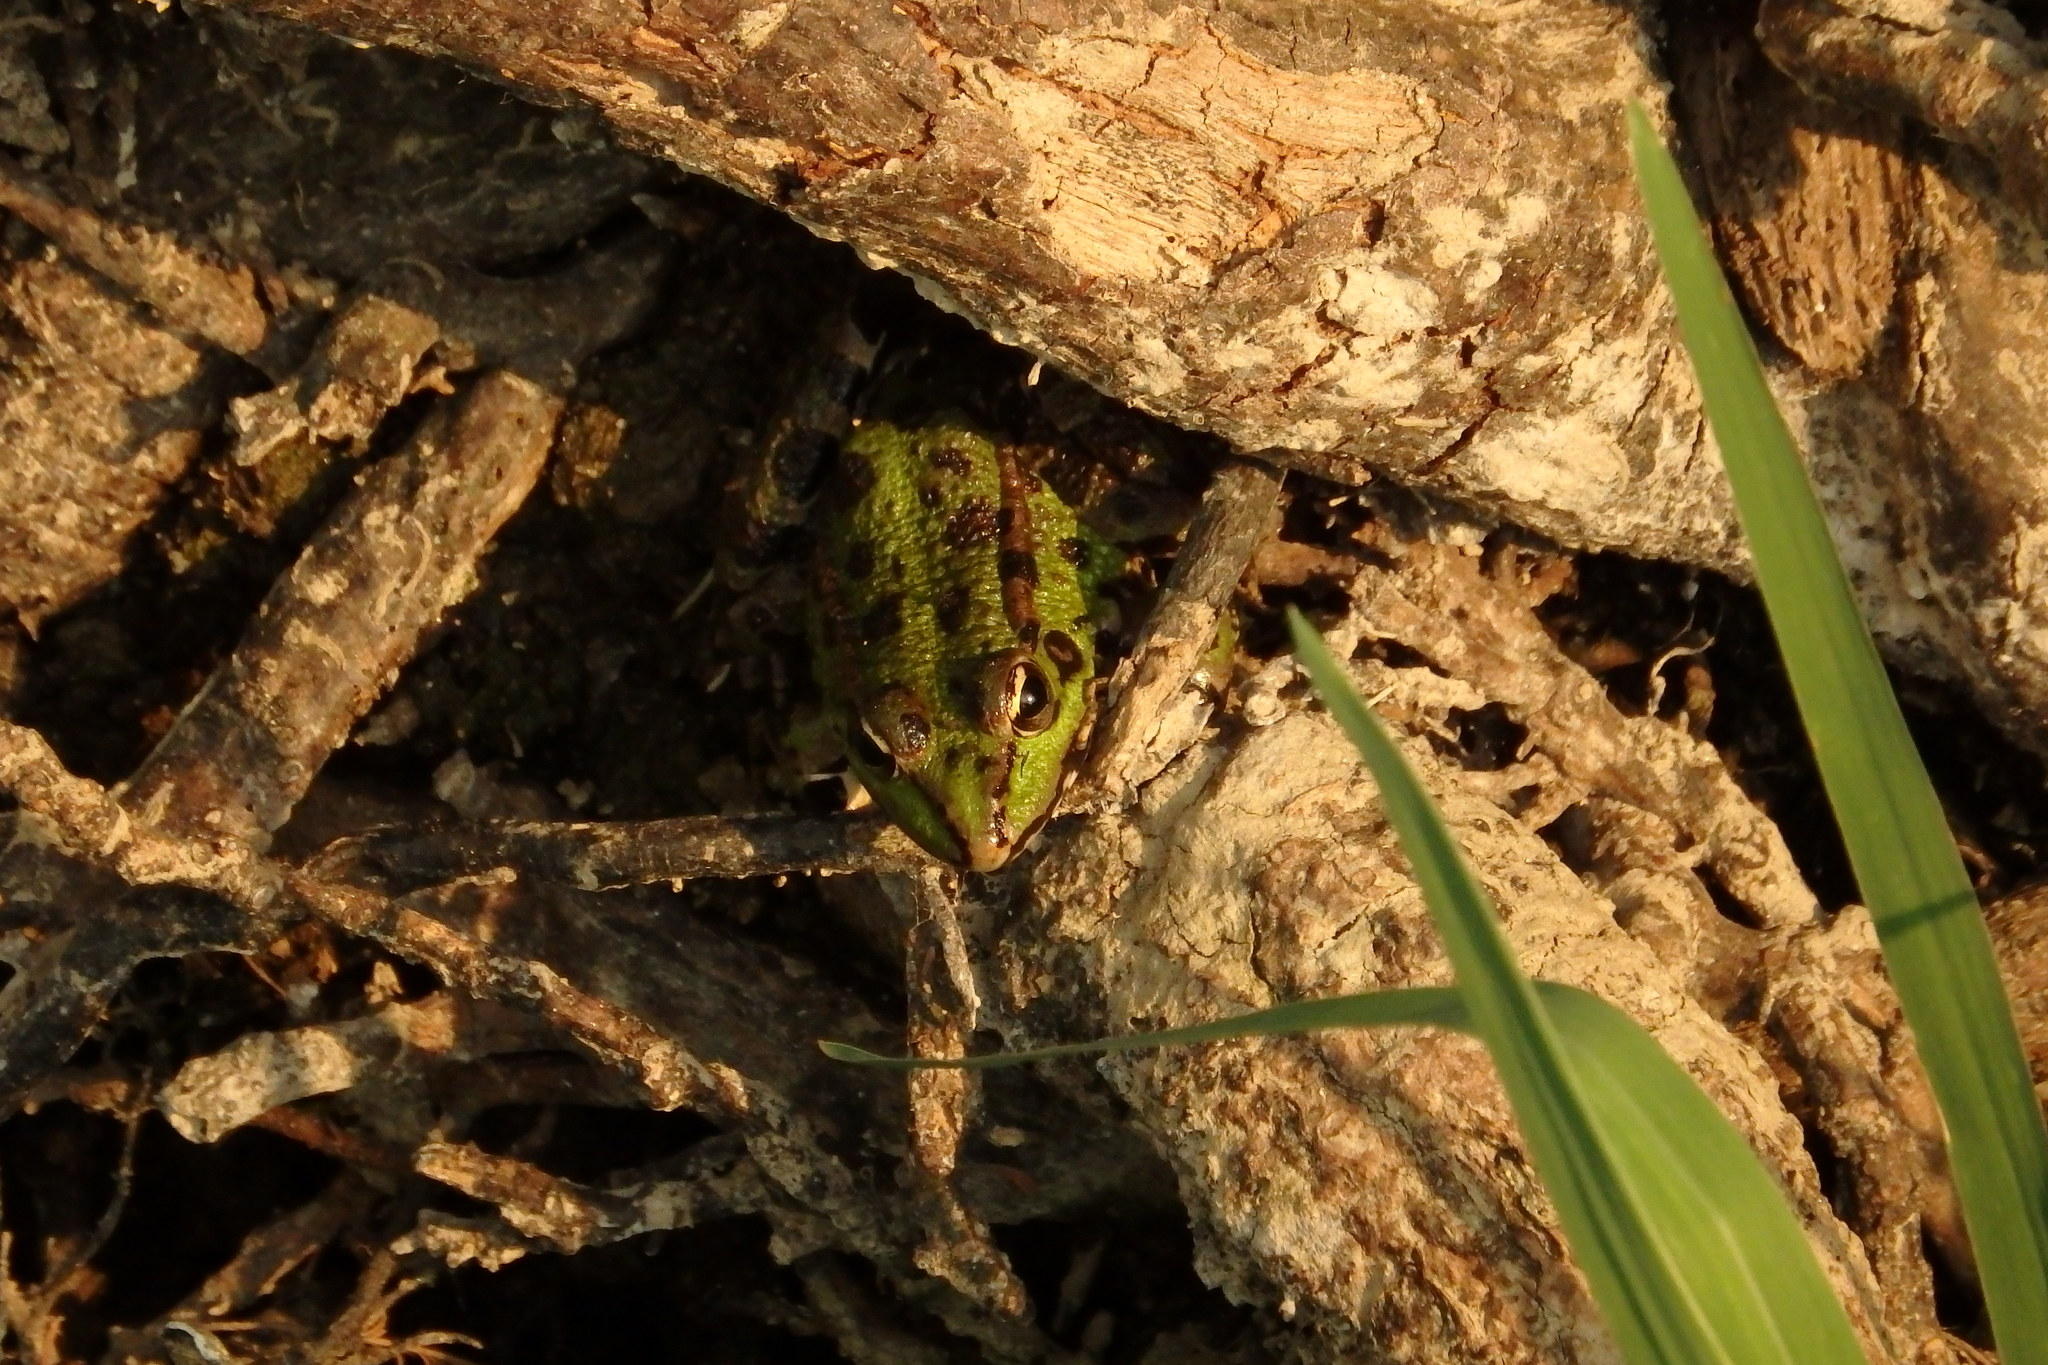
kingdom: Animalia
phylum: Chordata
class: Amphibia
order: Anura
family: Ranidae
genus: Pelophylax
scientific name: Pelophylax perezi
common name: Perez's frog
